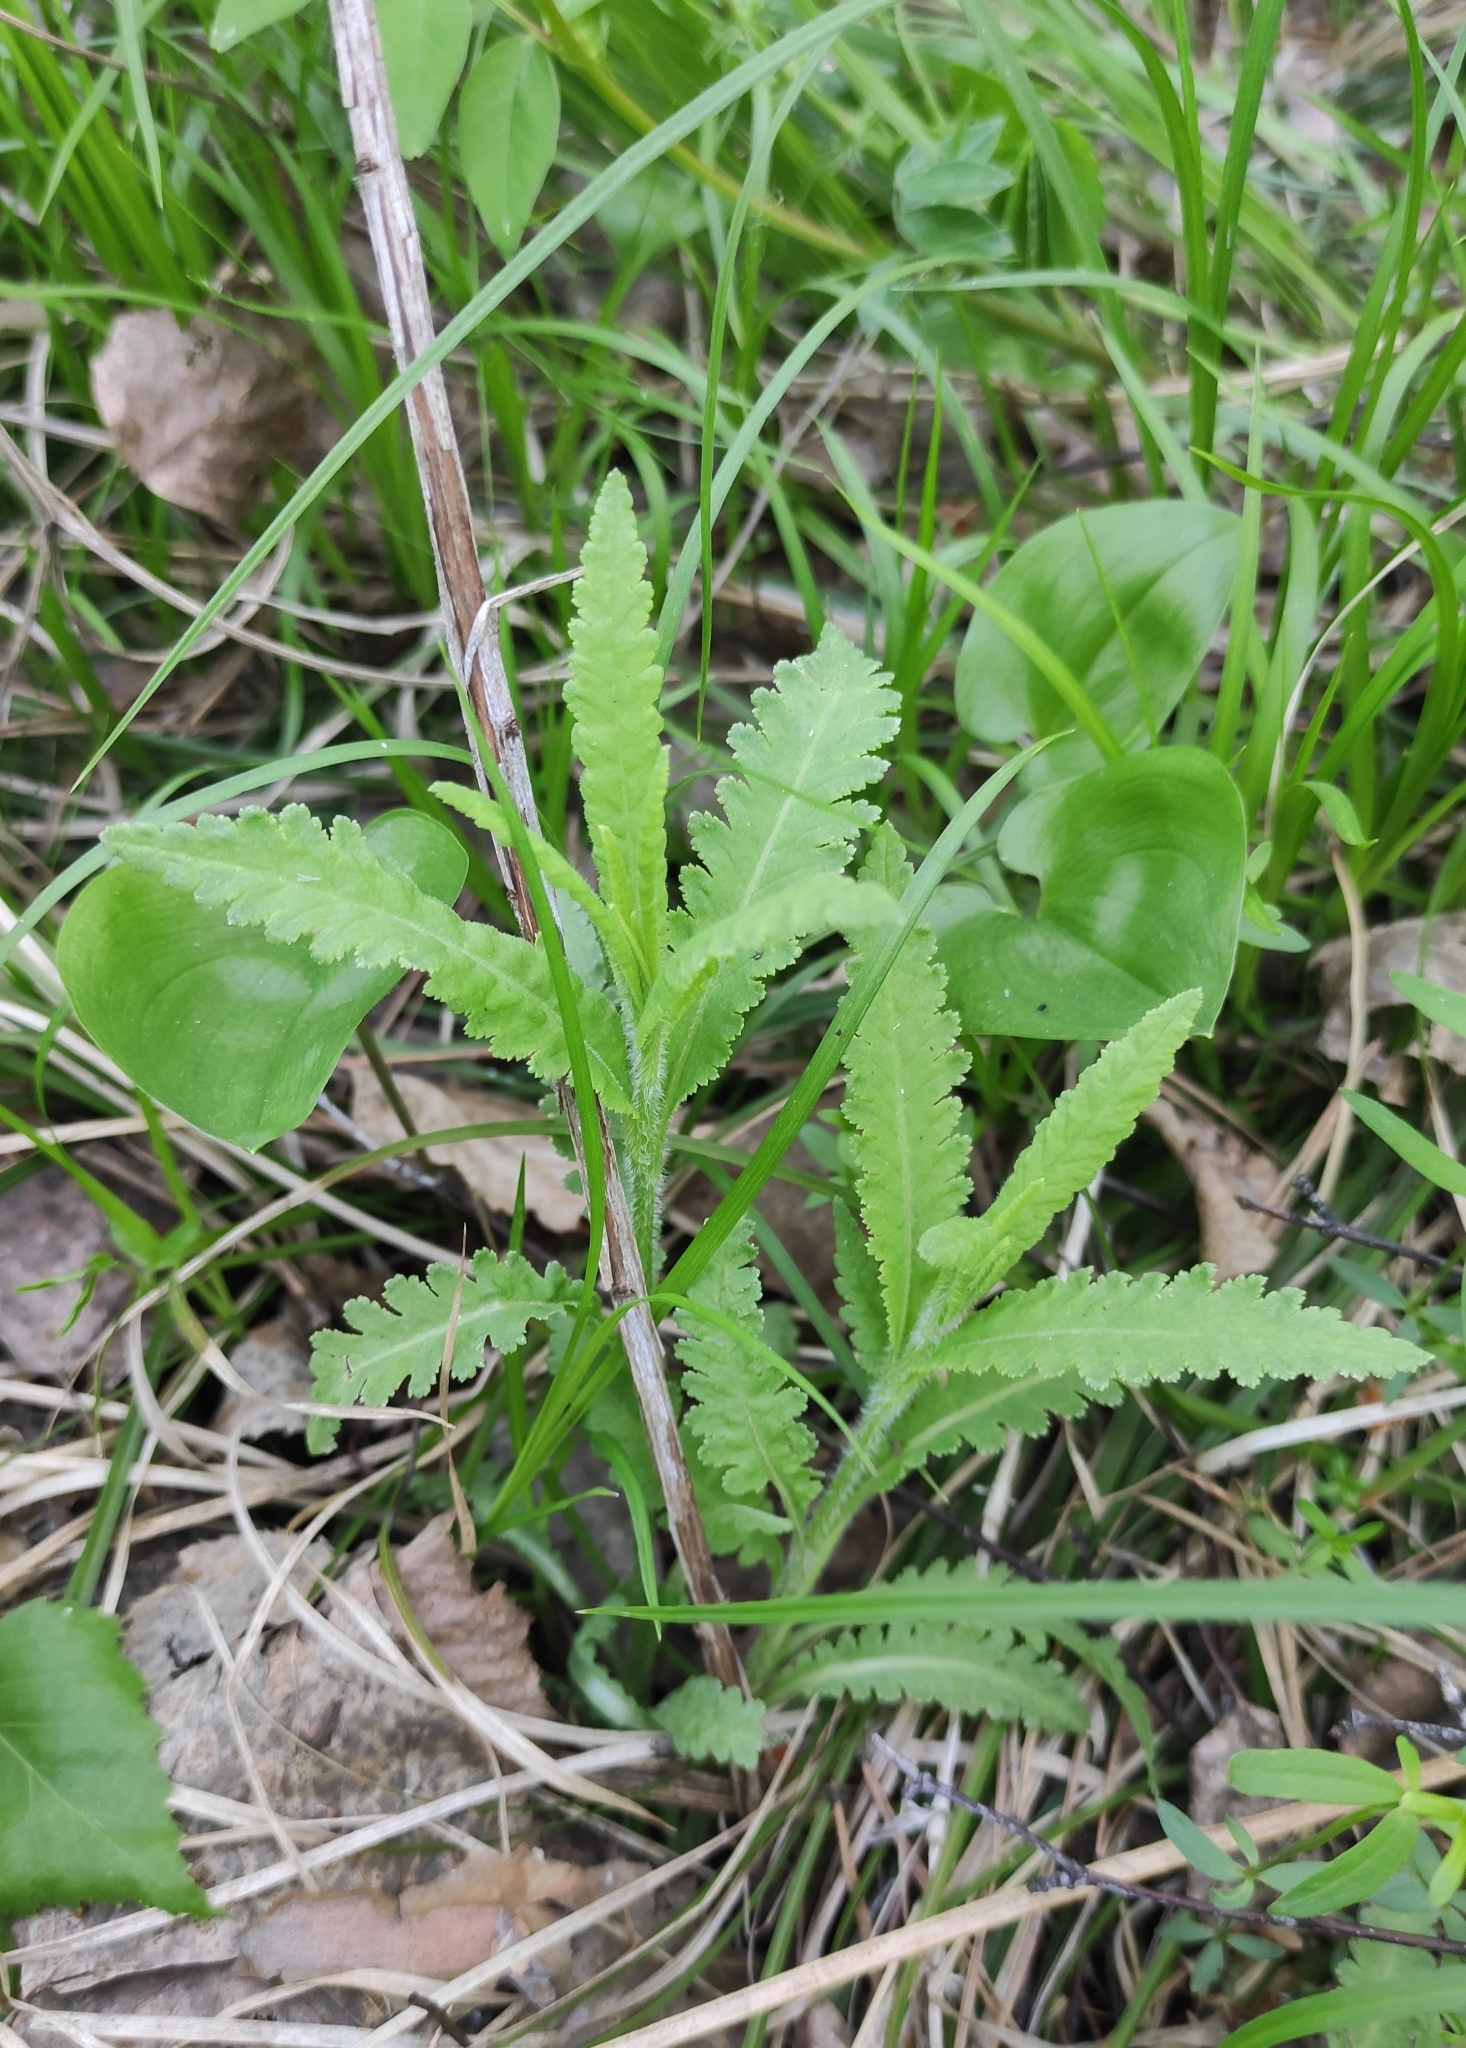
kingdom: Plantae
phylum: Tracheophyta
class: Magnoliopsida
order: Lamiales
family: Orobanchaceae
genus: Pedicularis
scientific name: Pedicularis resupinata
